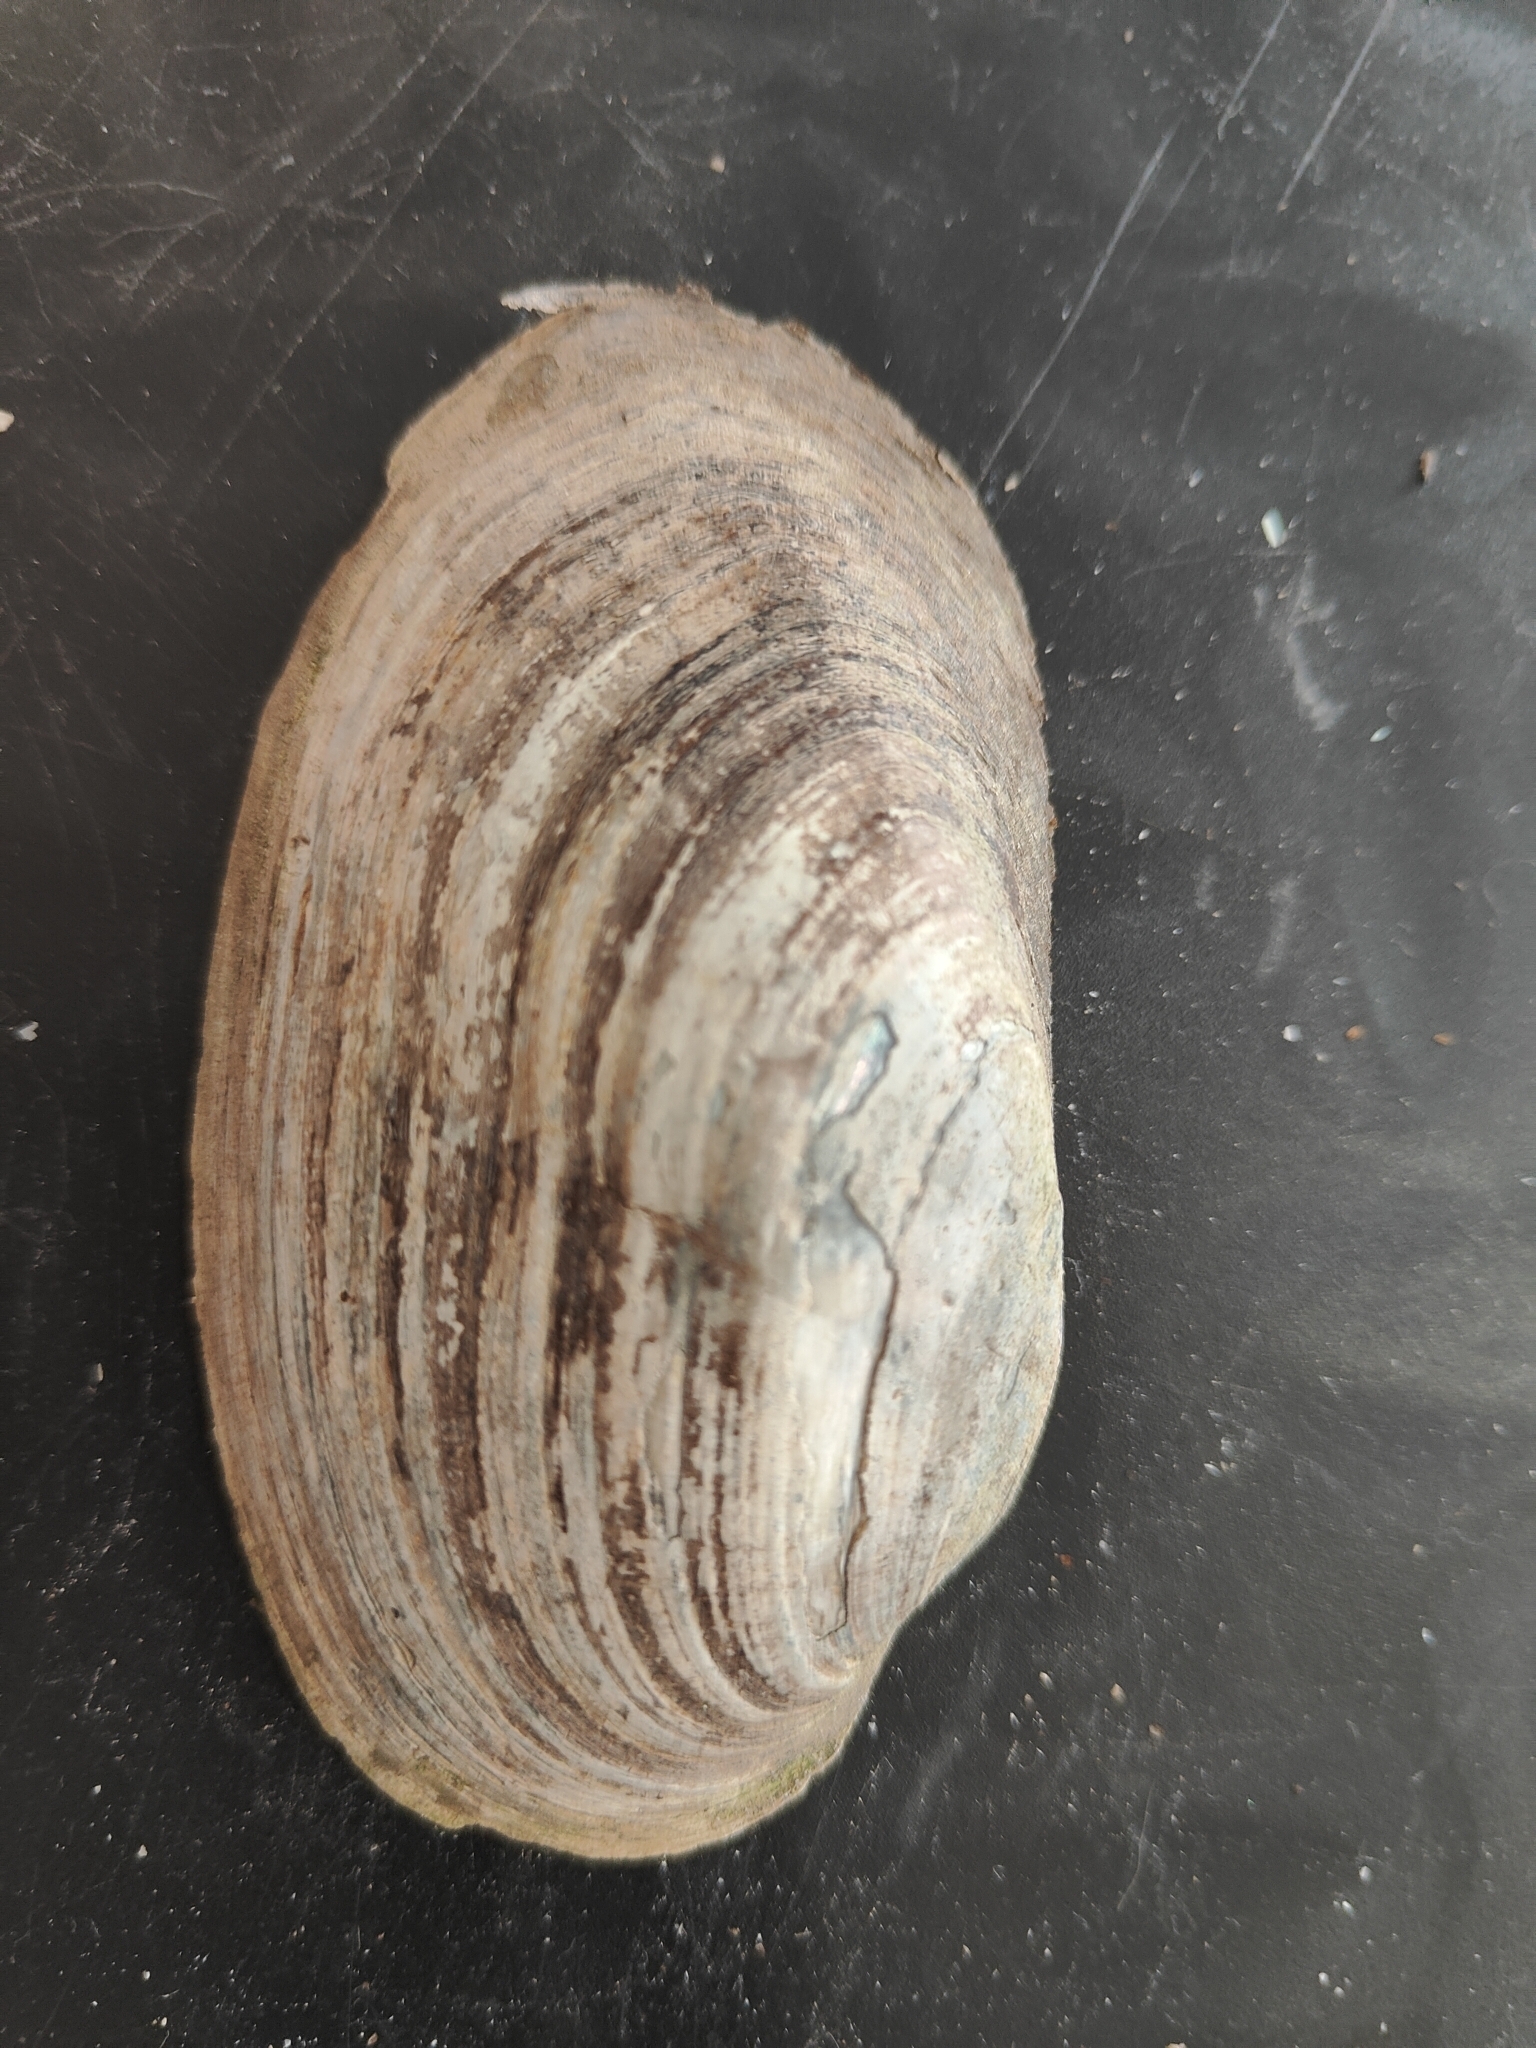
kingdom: Animalia
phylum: Mollusca
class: Bivalvia
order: Unionida
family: Unionidae
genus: Lampsilis
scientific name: Lampsilis siliquoidea
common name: Fatmucket
